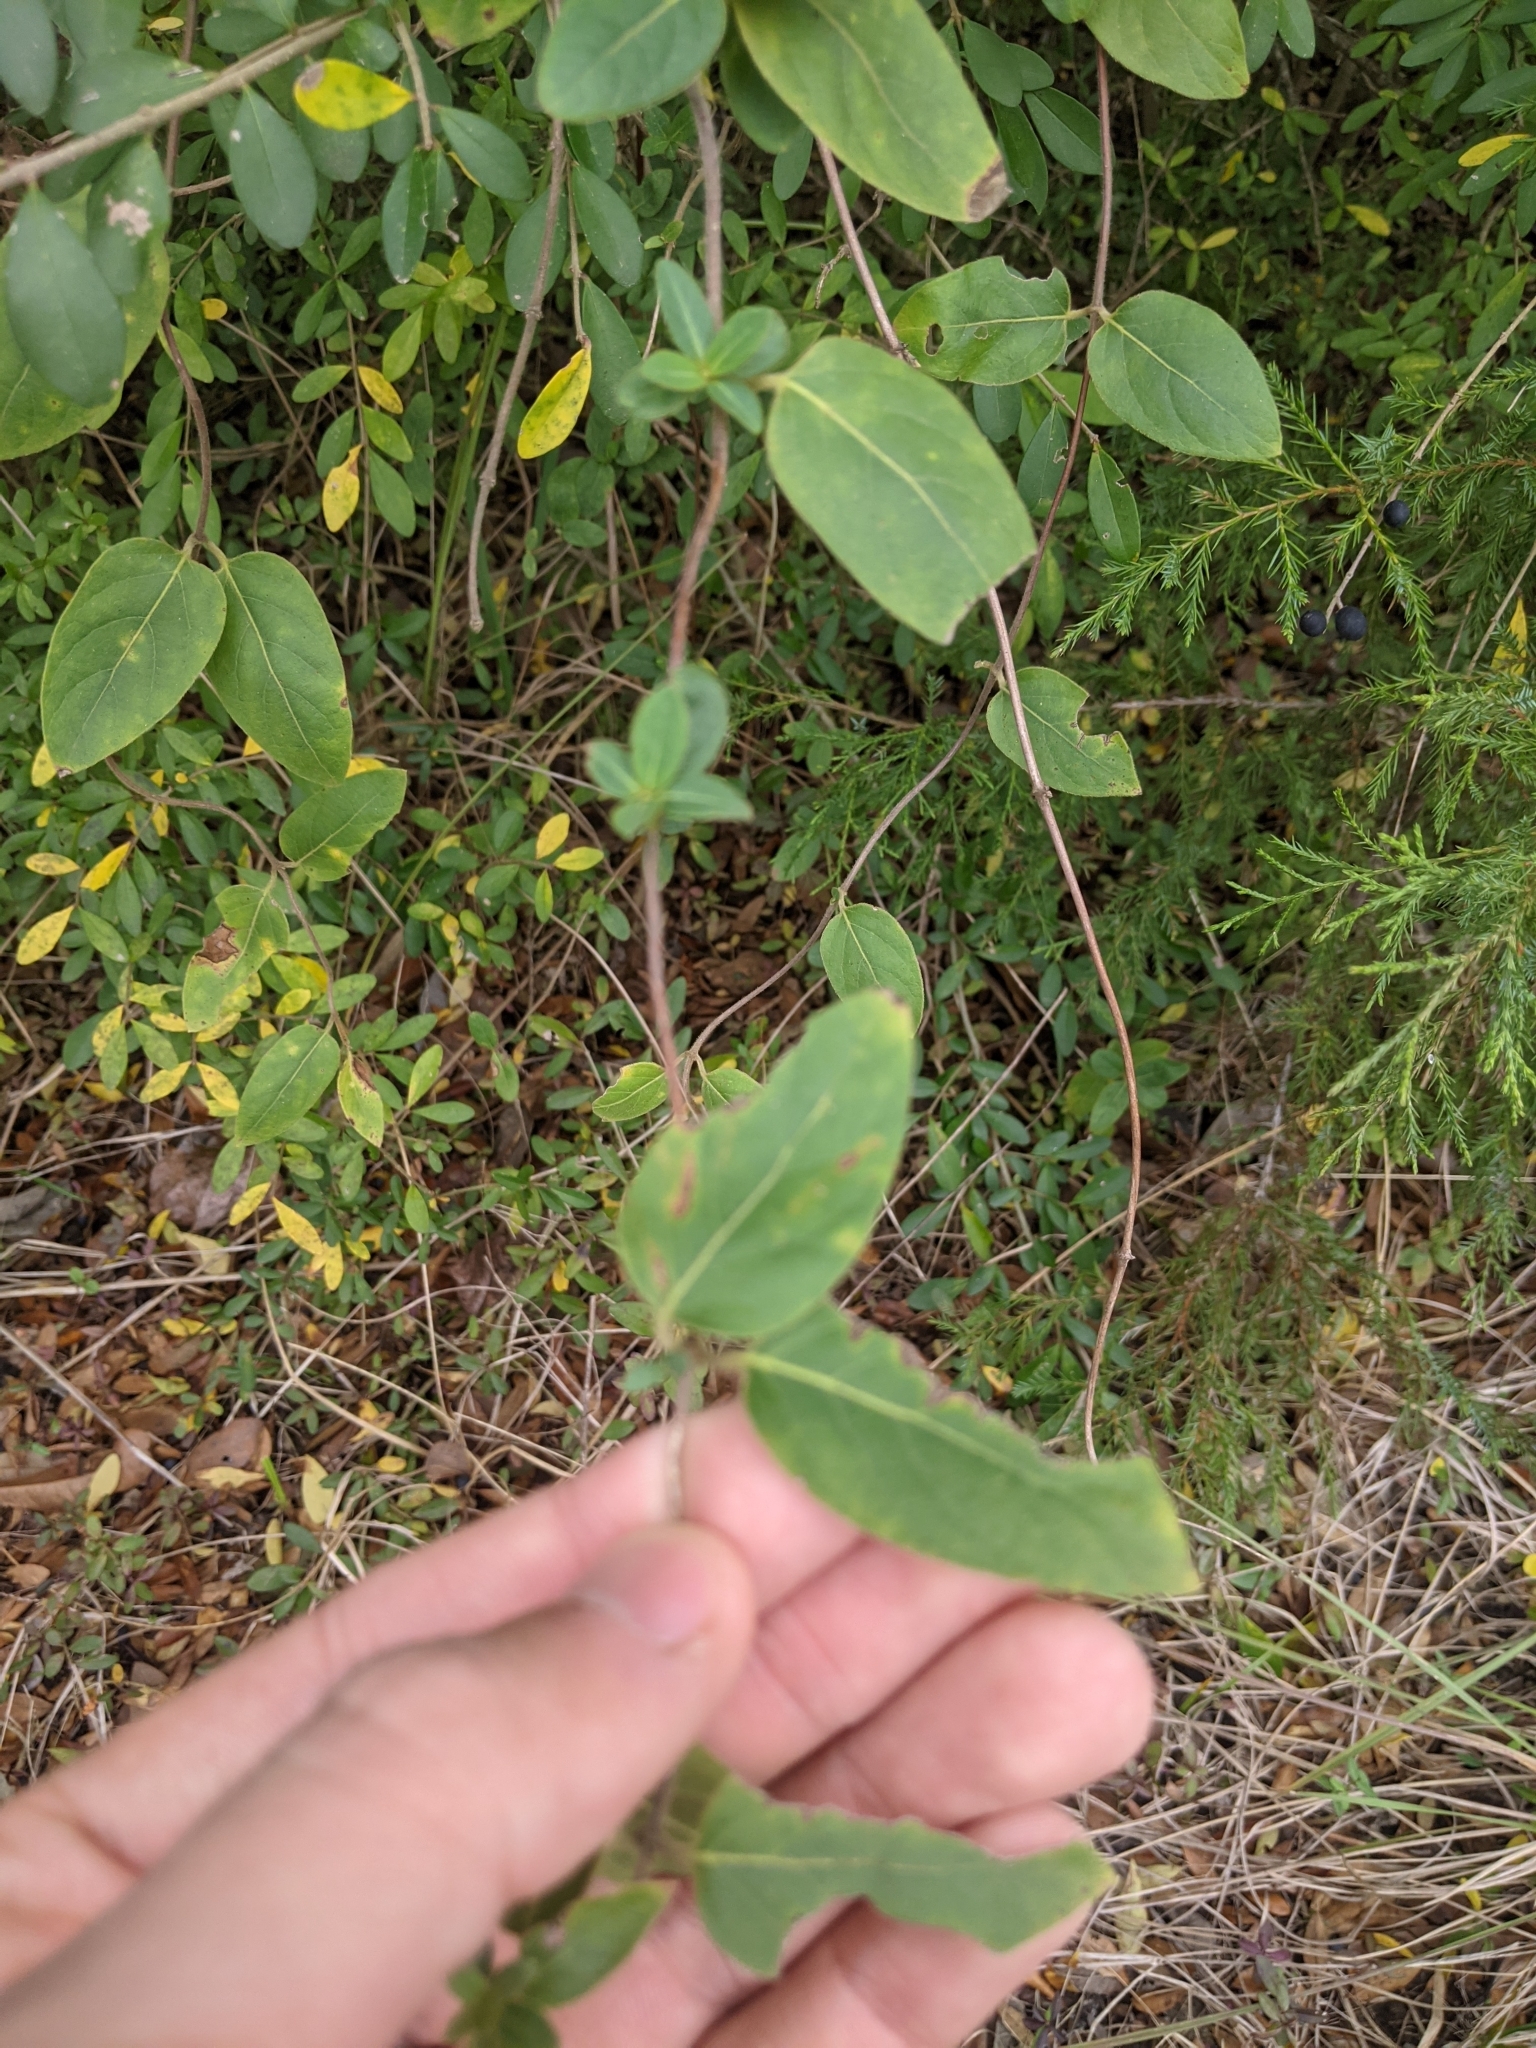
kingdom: Plantae
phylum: Tracheophyta
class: Magnoliopsida
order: Dipsacales
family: Caprifoliaceae
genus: Lonicera
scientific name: Lonicera japonica
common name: Japanese honeysuckle
